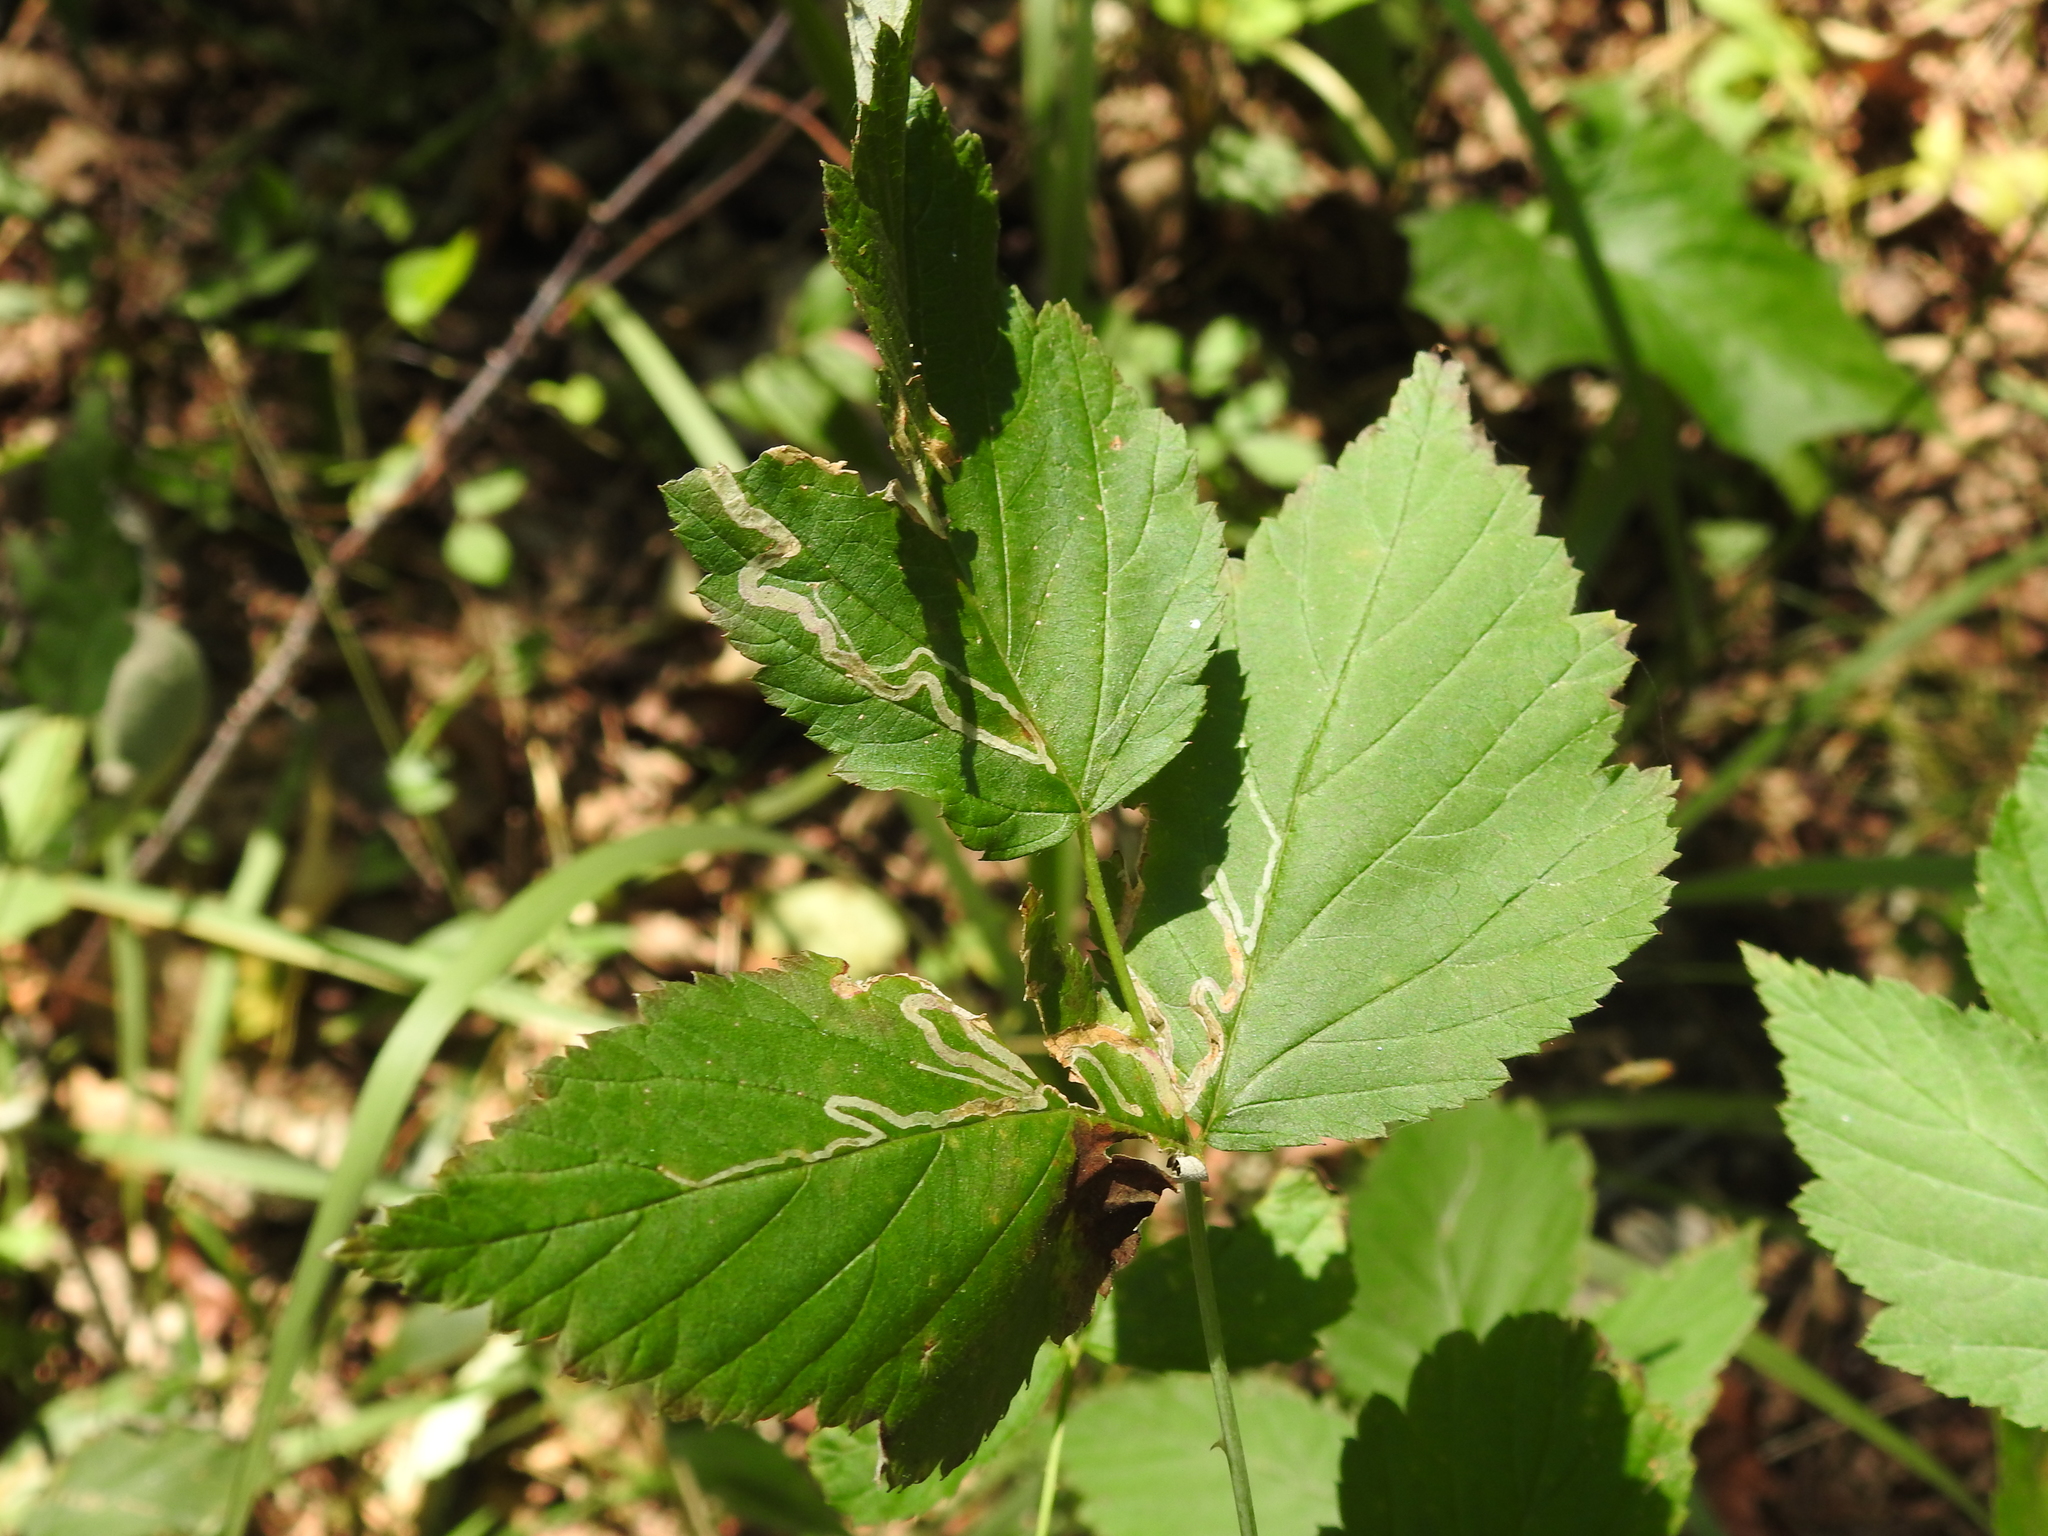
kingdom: Animalia
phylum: Arthropoda
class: Insecta
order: Diptera
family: Agromyzidae
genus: Agromyza
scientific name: Agromyza vockerothi
